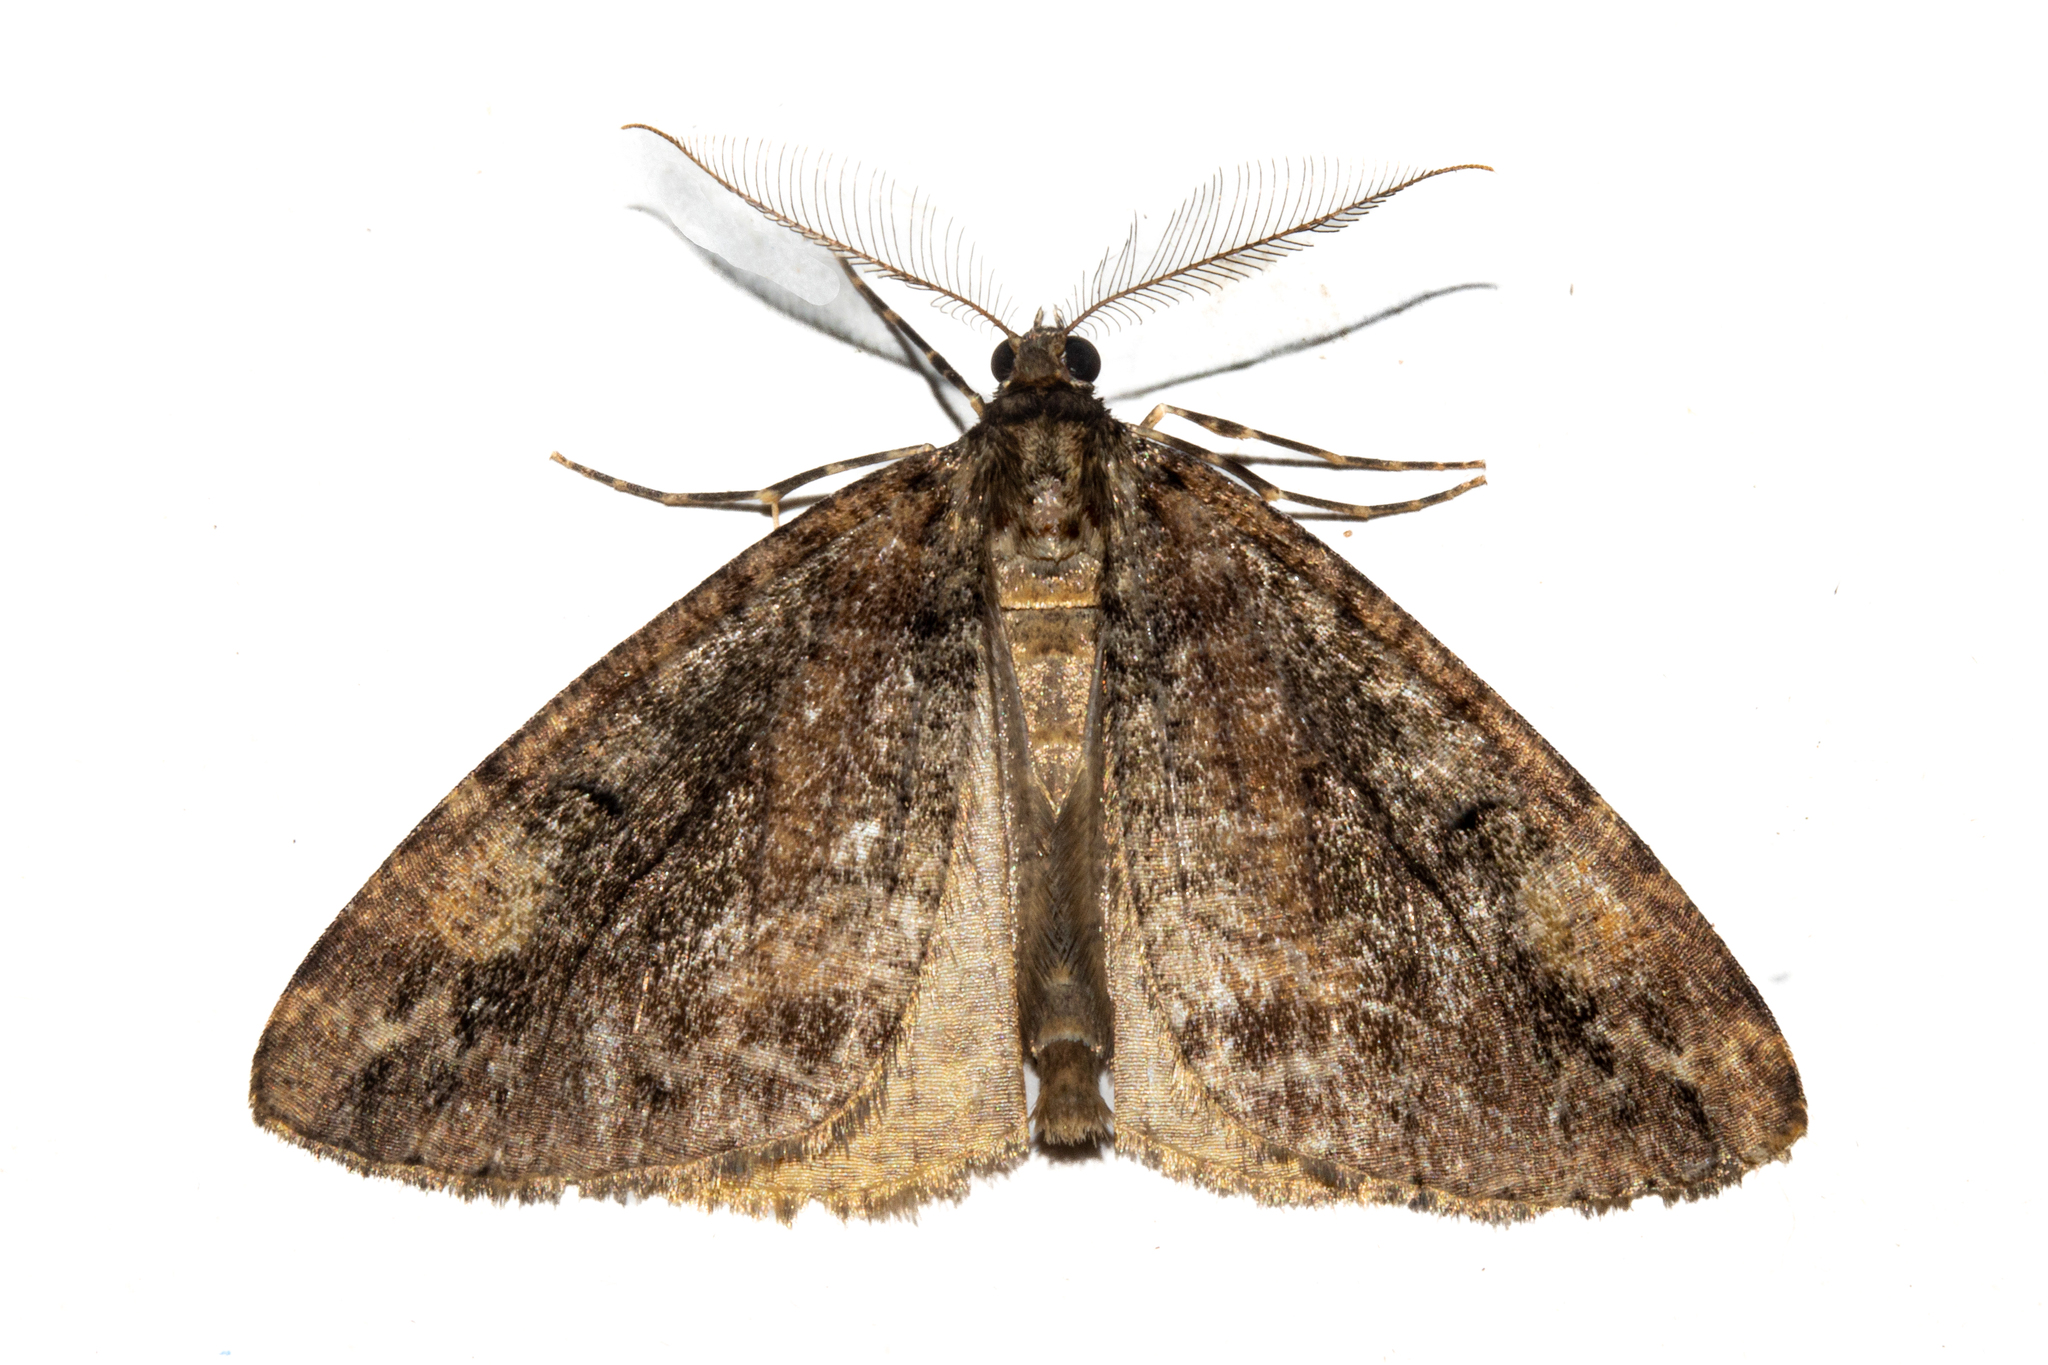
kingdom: Animalia
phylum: Arthropoda
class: Insecta
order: Lepidoptera
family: Geometridae
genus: Pseudocoremia
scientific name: Pseudocoremia productata
